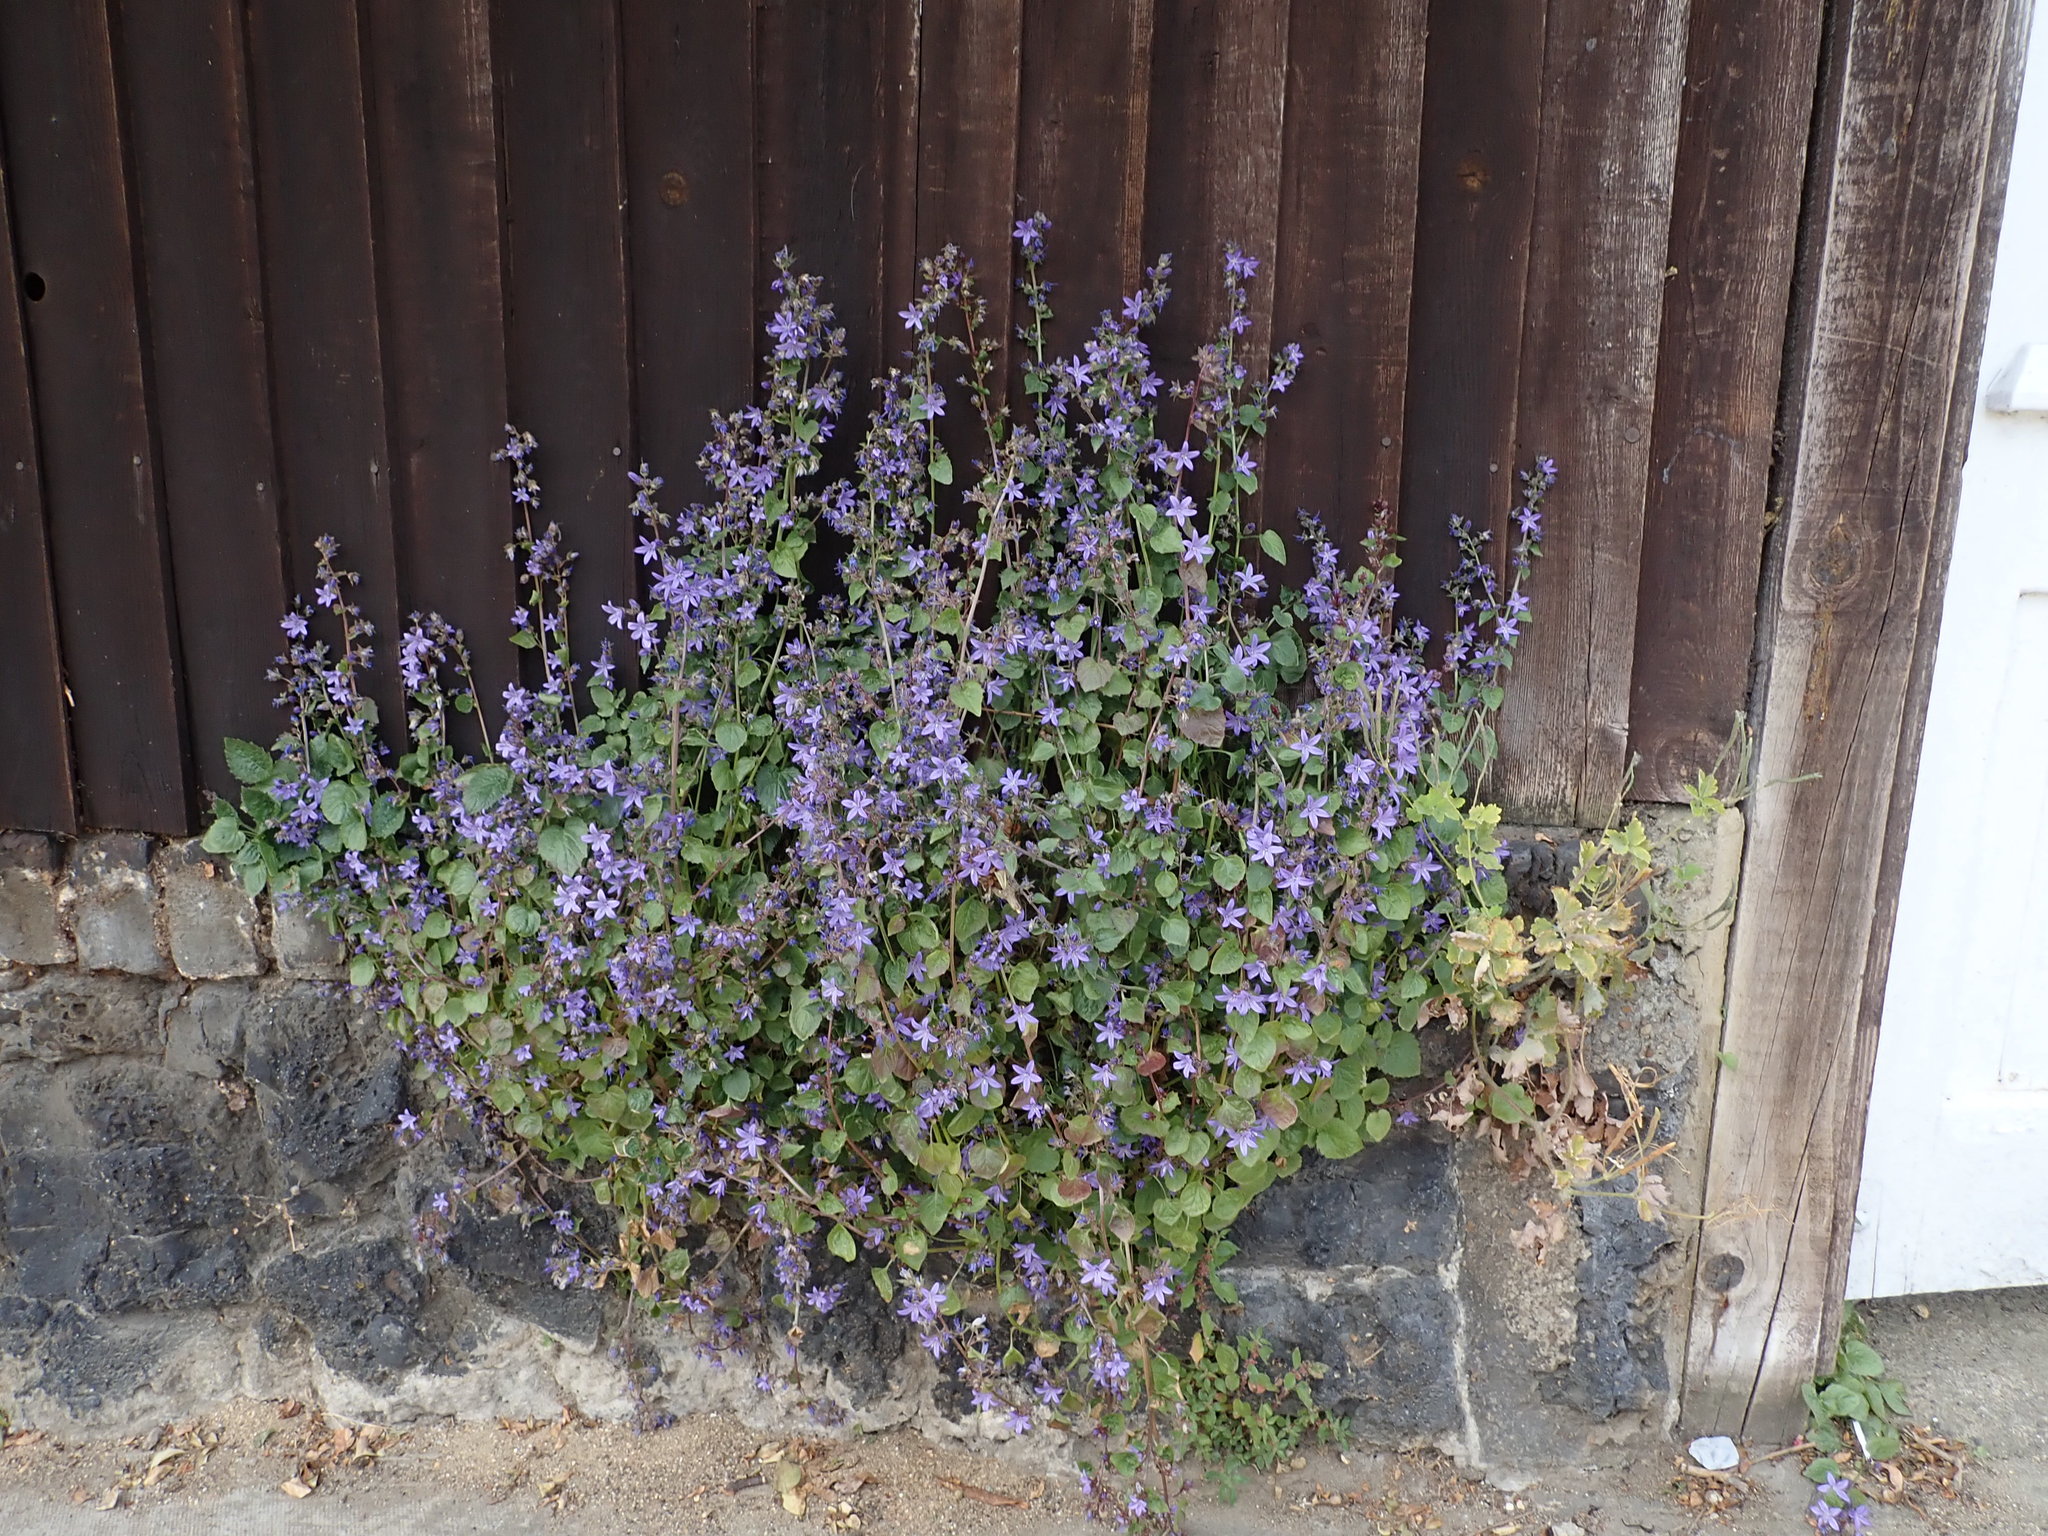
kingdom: Plantae
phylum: Tracheophyta
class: Magnoliopsida
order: Asterales
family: Campanulaceae
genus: Campanula
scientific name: Campanula poscharskyana
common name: Trailing bellflower
